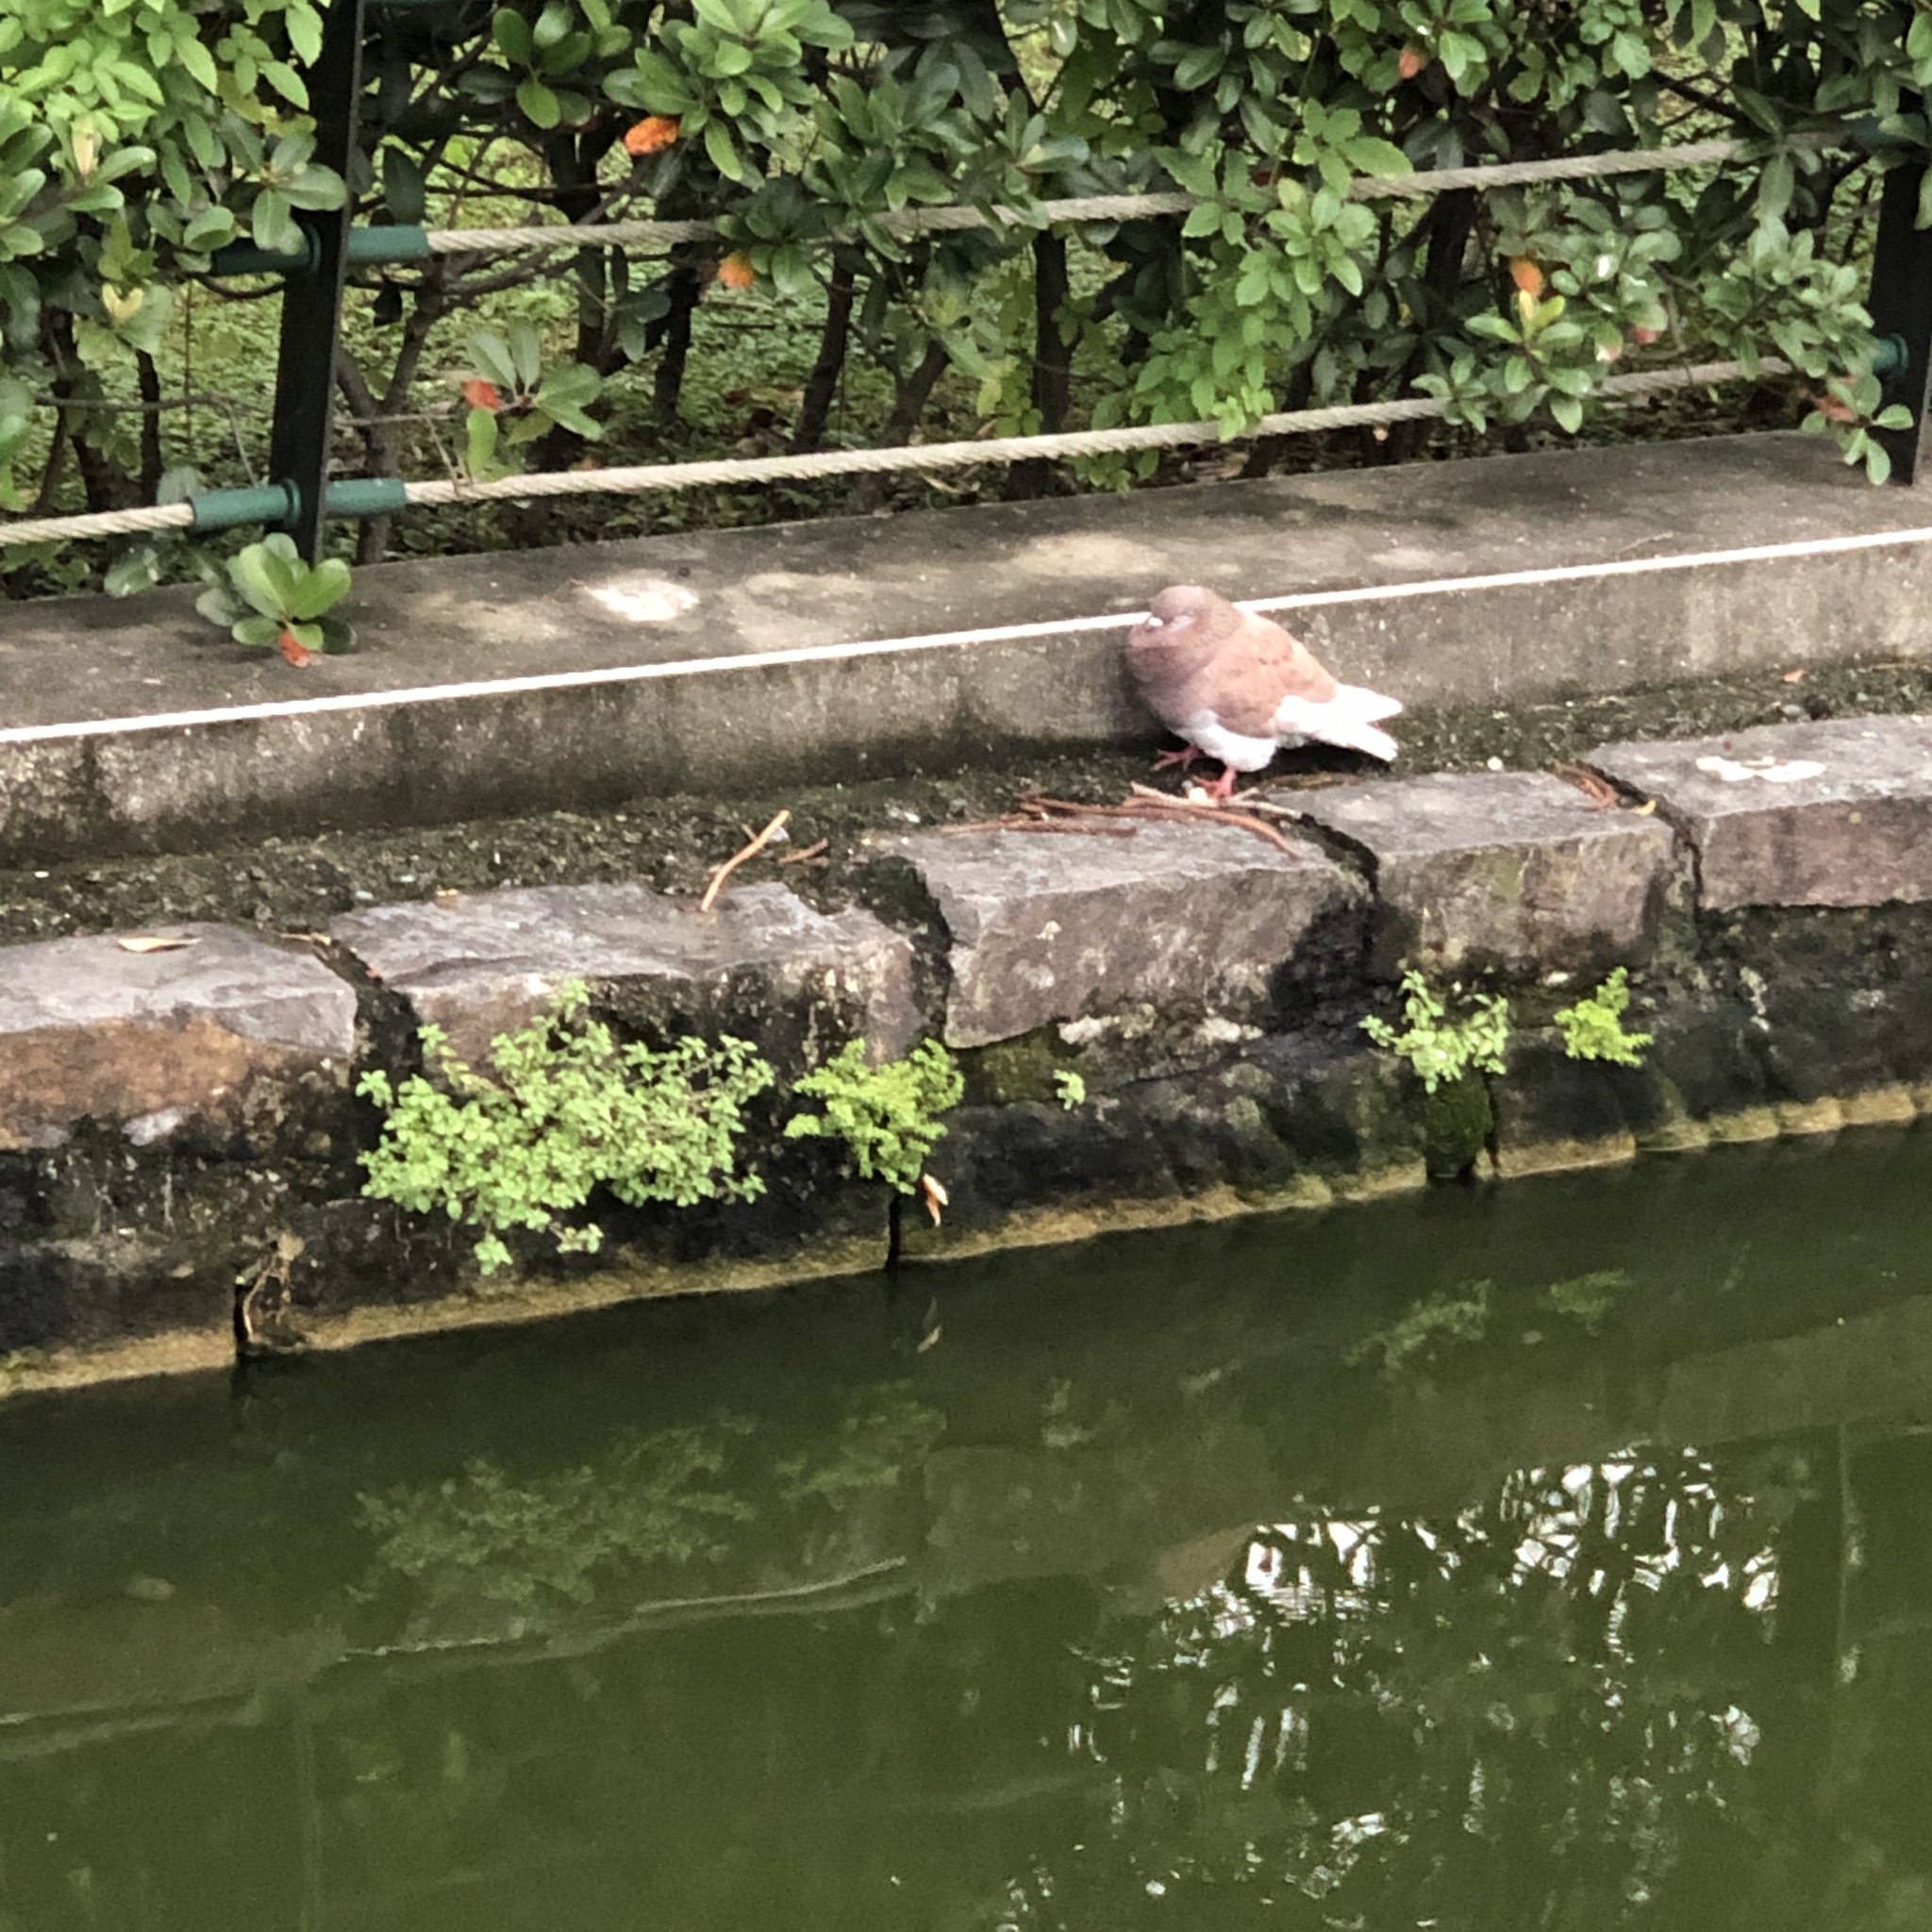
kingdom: Animalia
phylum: Chordata
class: Aves
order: Columbiformes
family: Columbidae
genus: Columba
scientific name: Columba livia
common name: Rock pigeon
